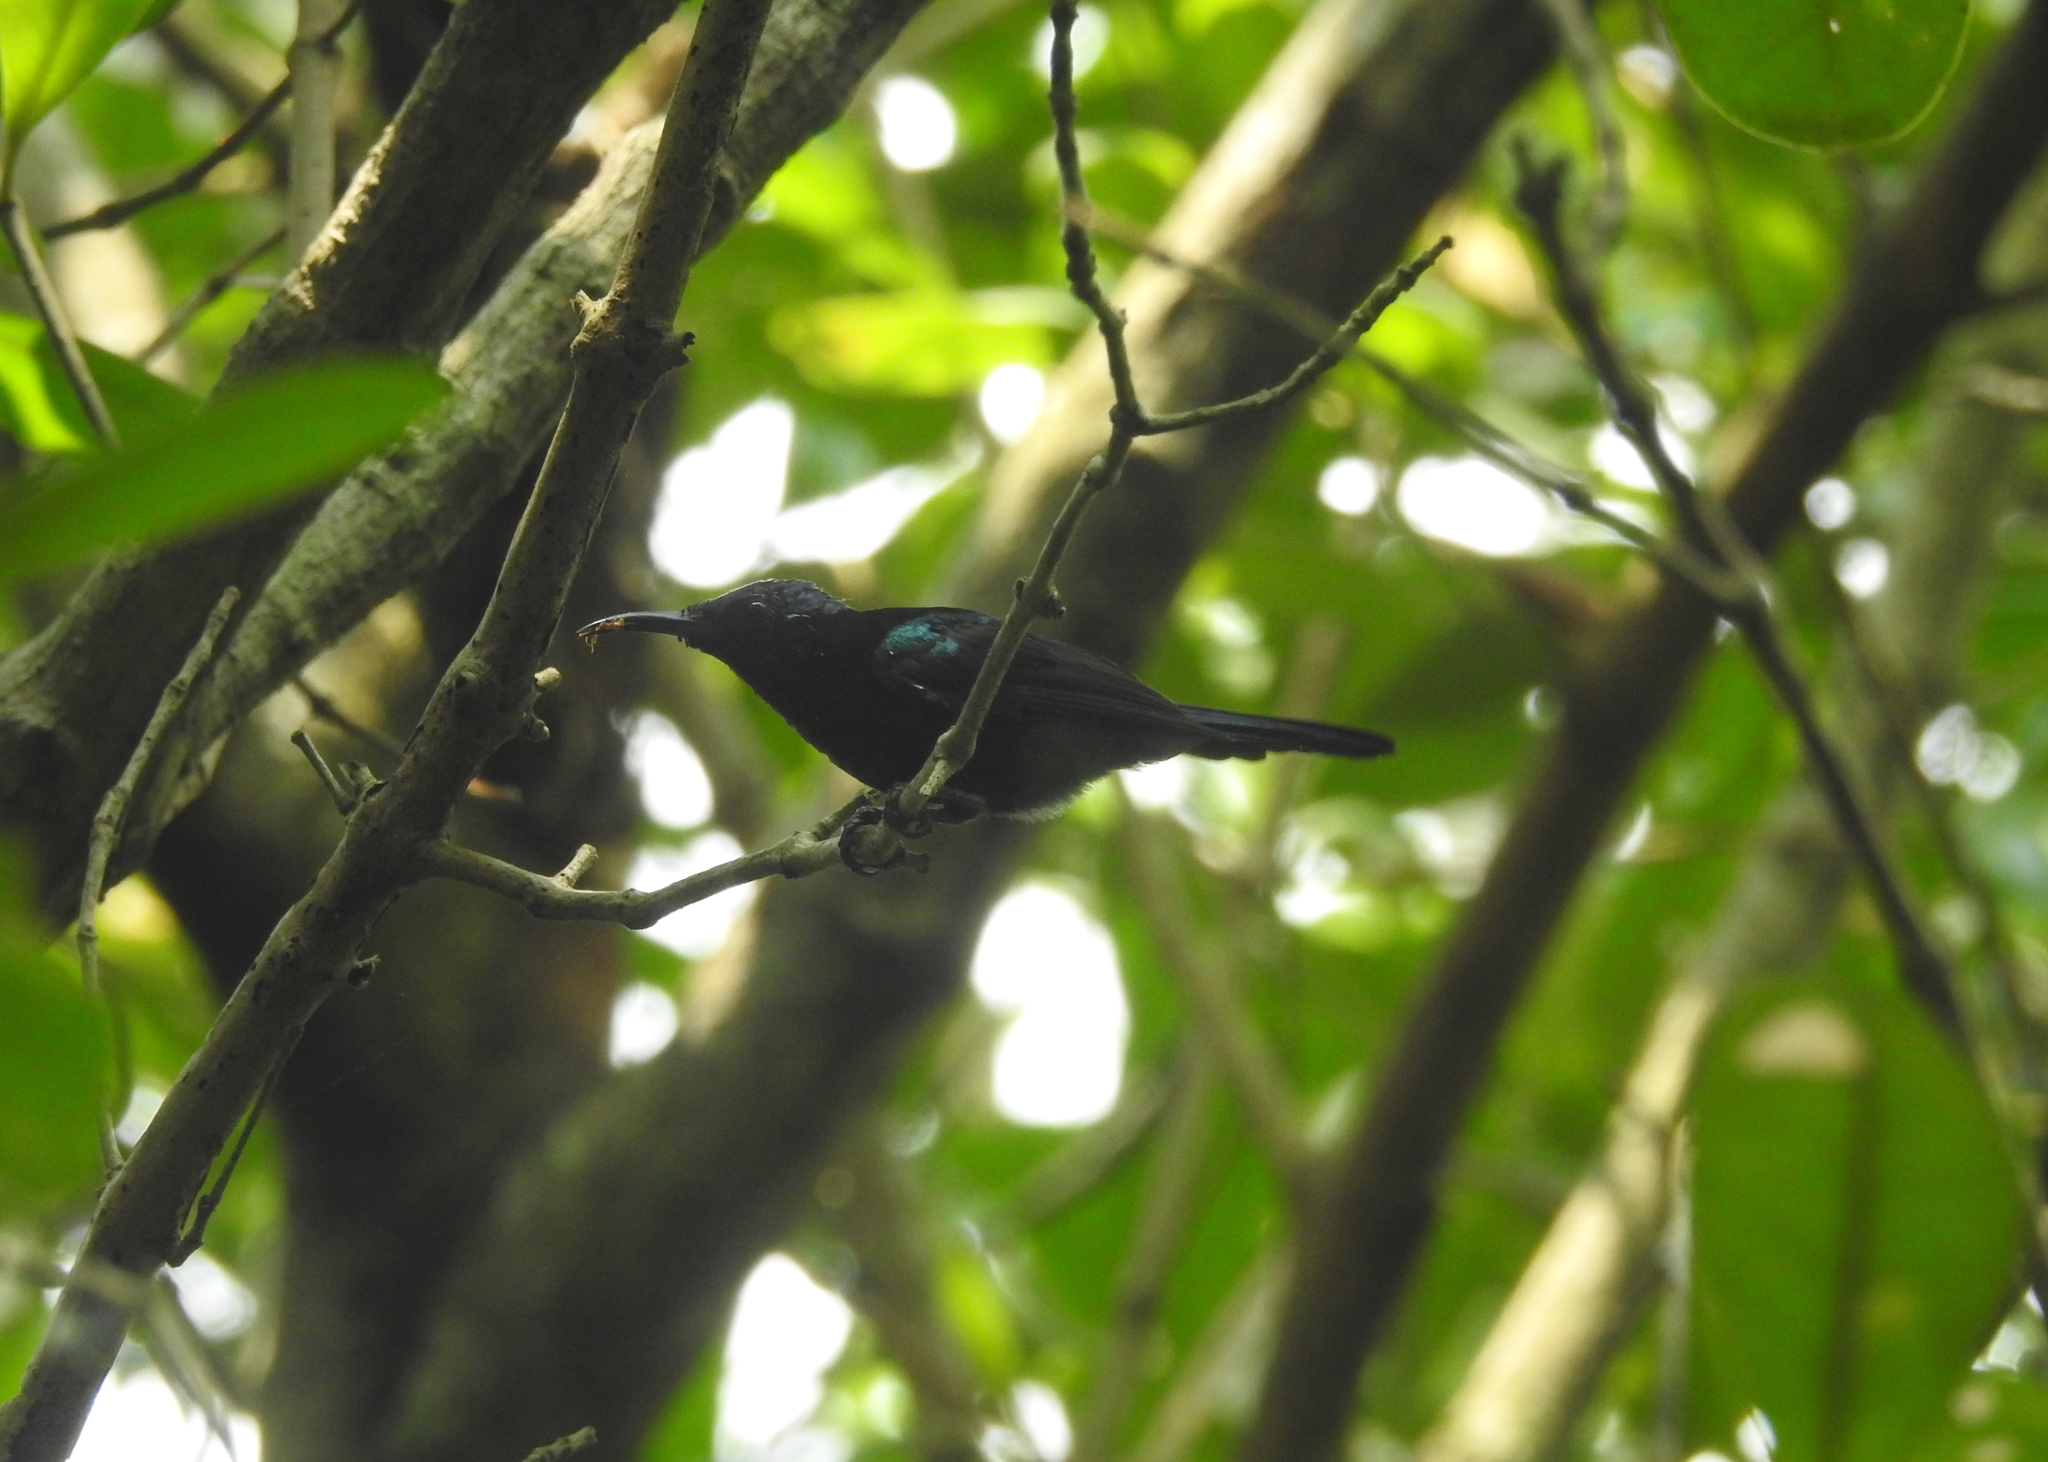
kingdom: Animalia
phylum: Chordata
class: Aves
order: Passeriformes
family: Nectariniidae
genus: Leptocoma
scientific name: Leptocoma calcostetha
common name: Copper-throated sunbird
